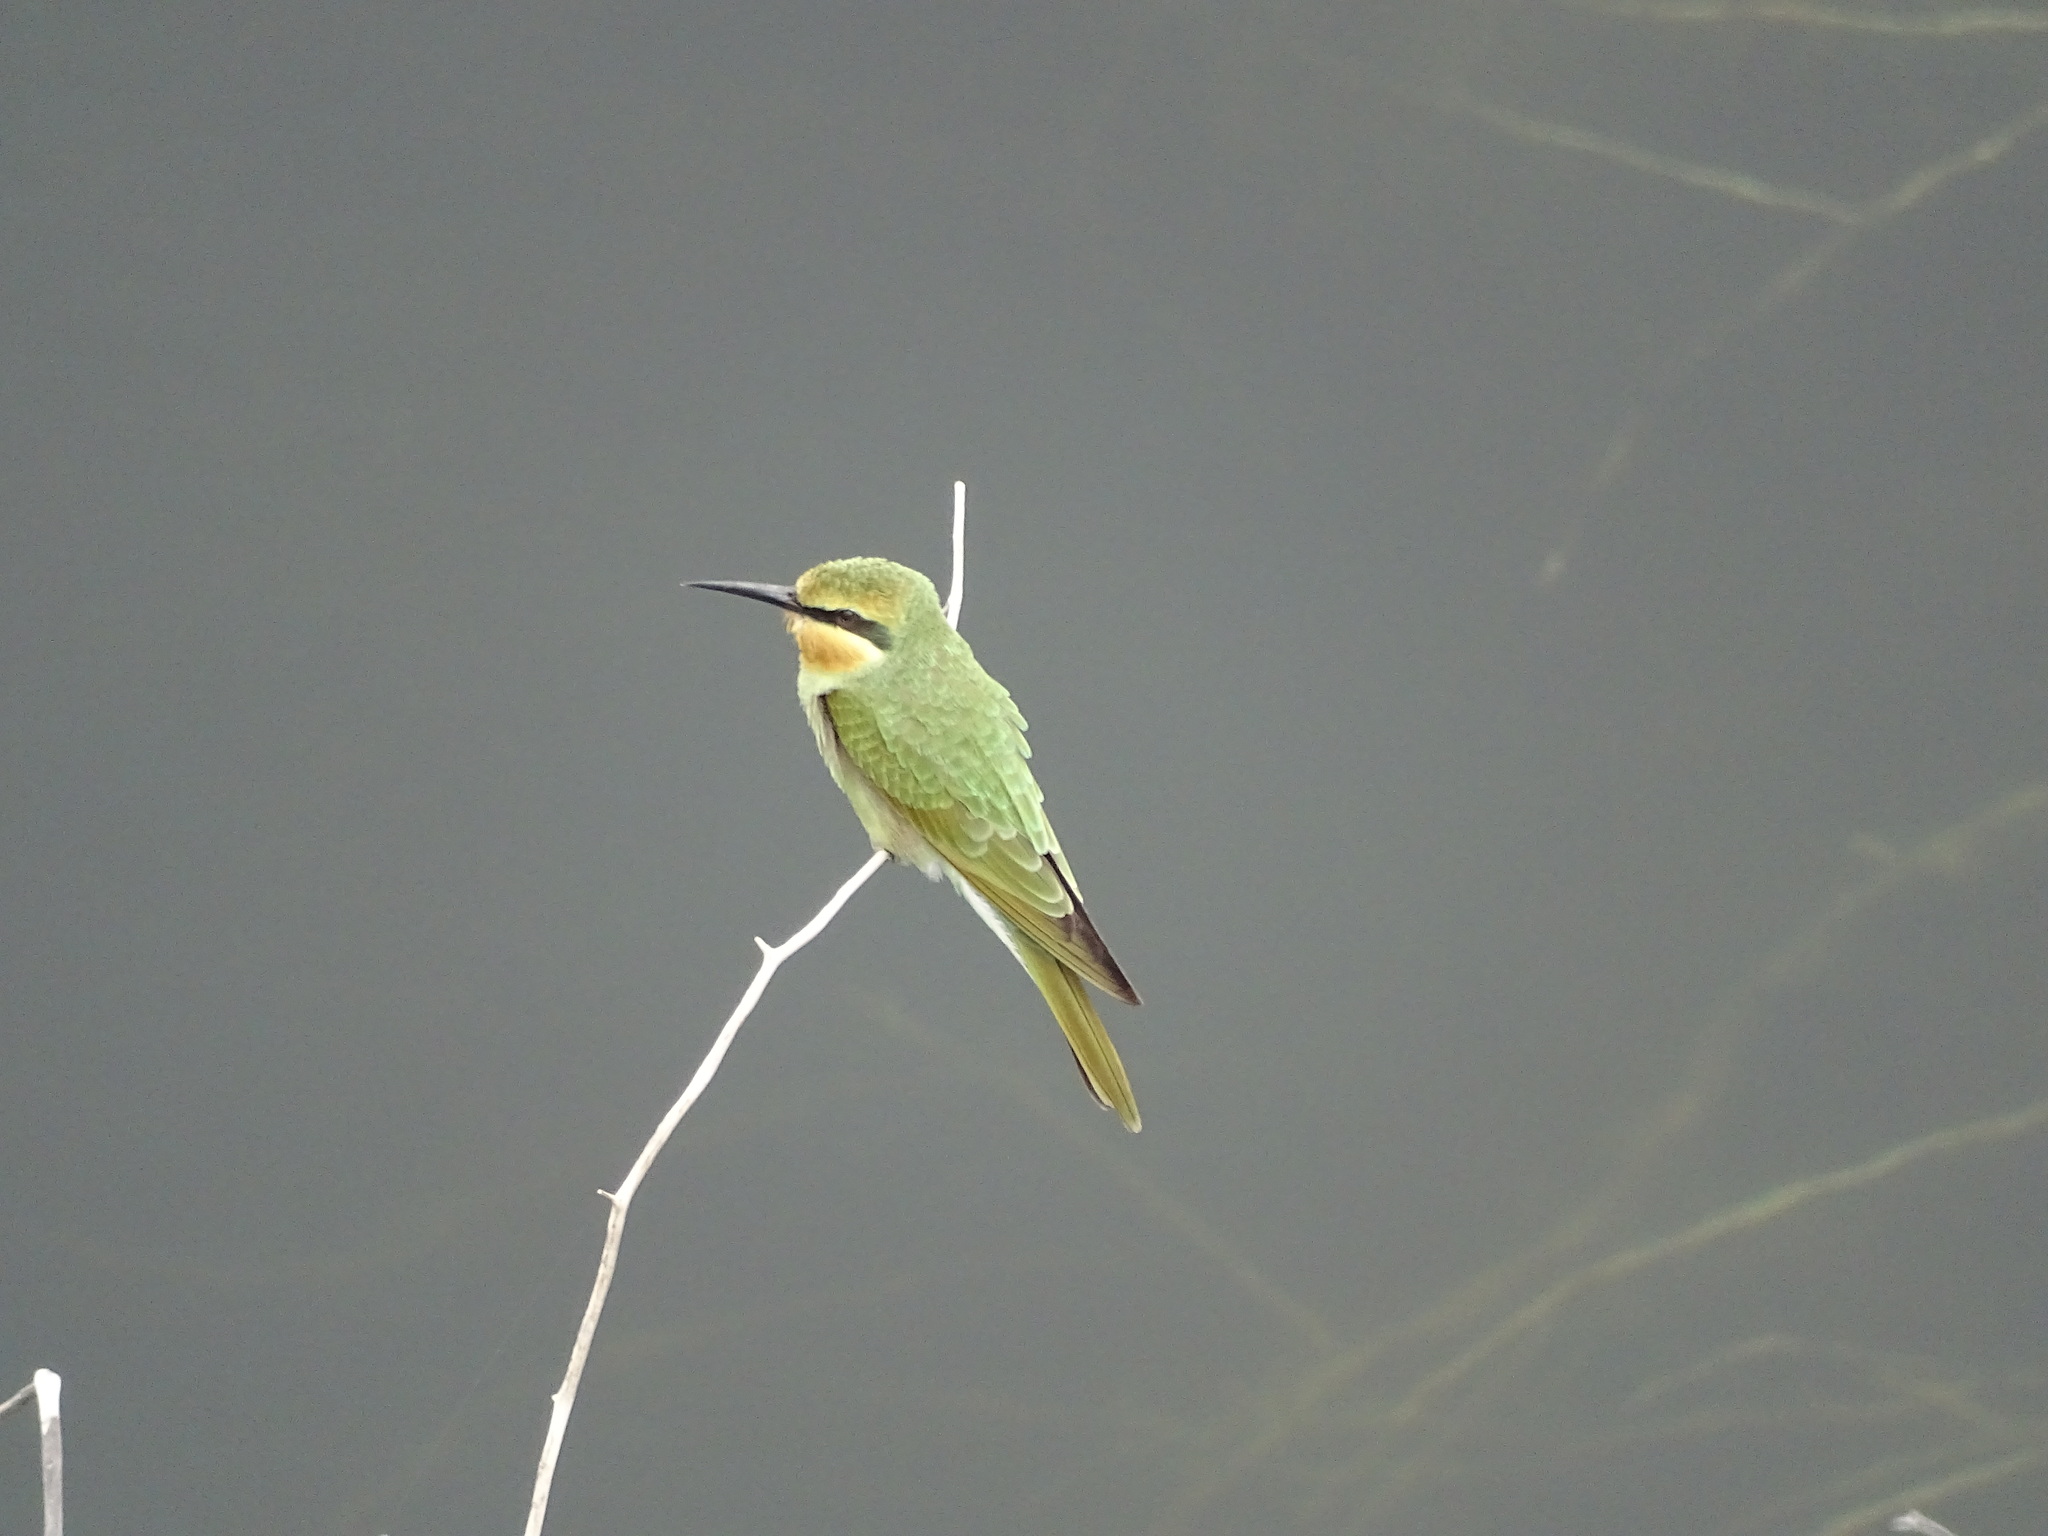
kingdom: Animalia
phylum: Chordata
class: Aves
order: Coraciiformes
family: Meropidae
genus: Merops
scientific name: Merops persicus
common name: Blue-cheeked bee-eater
